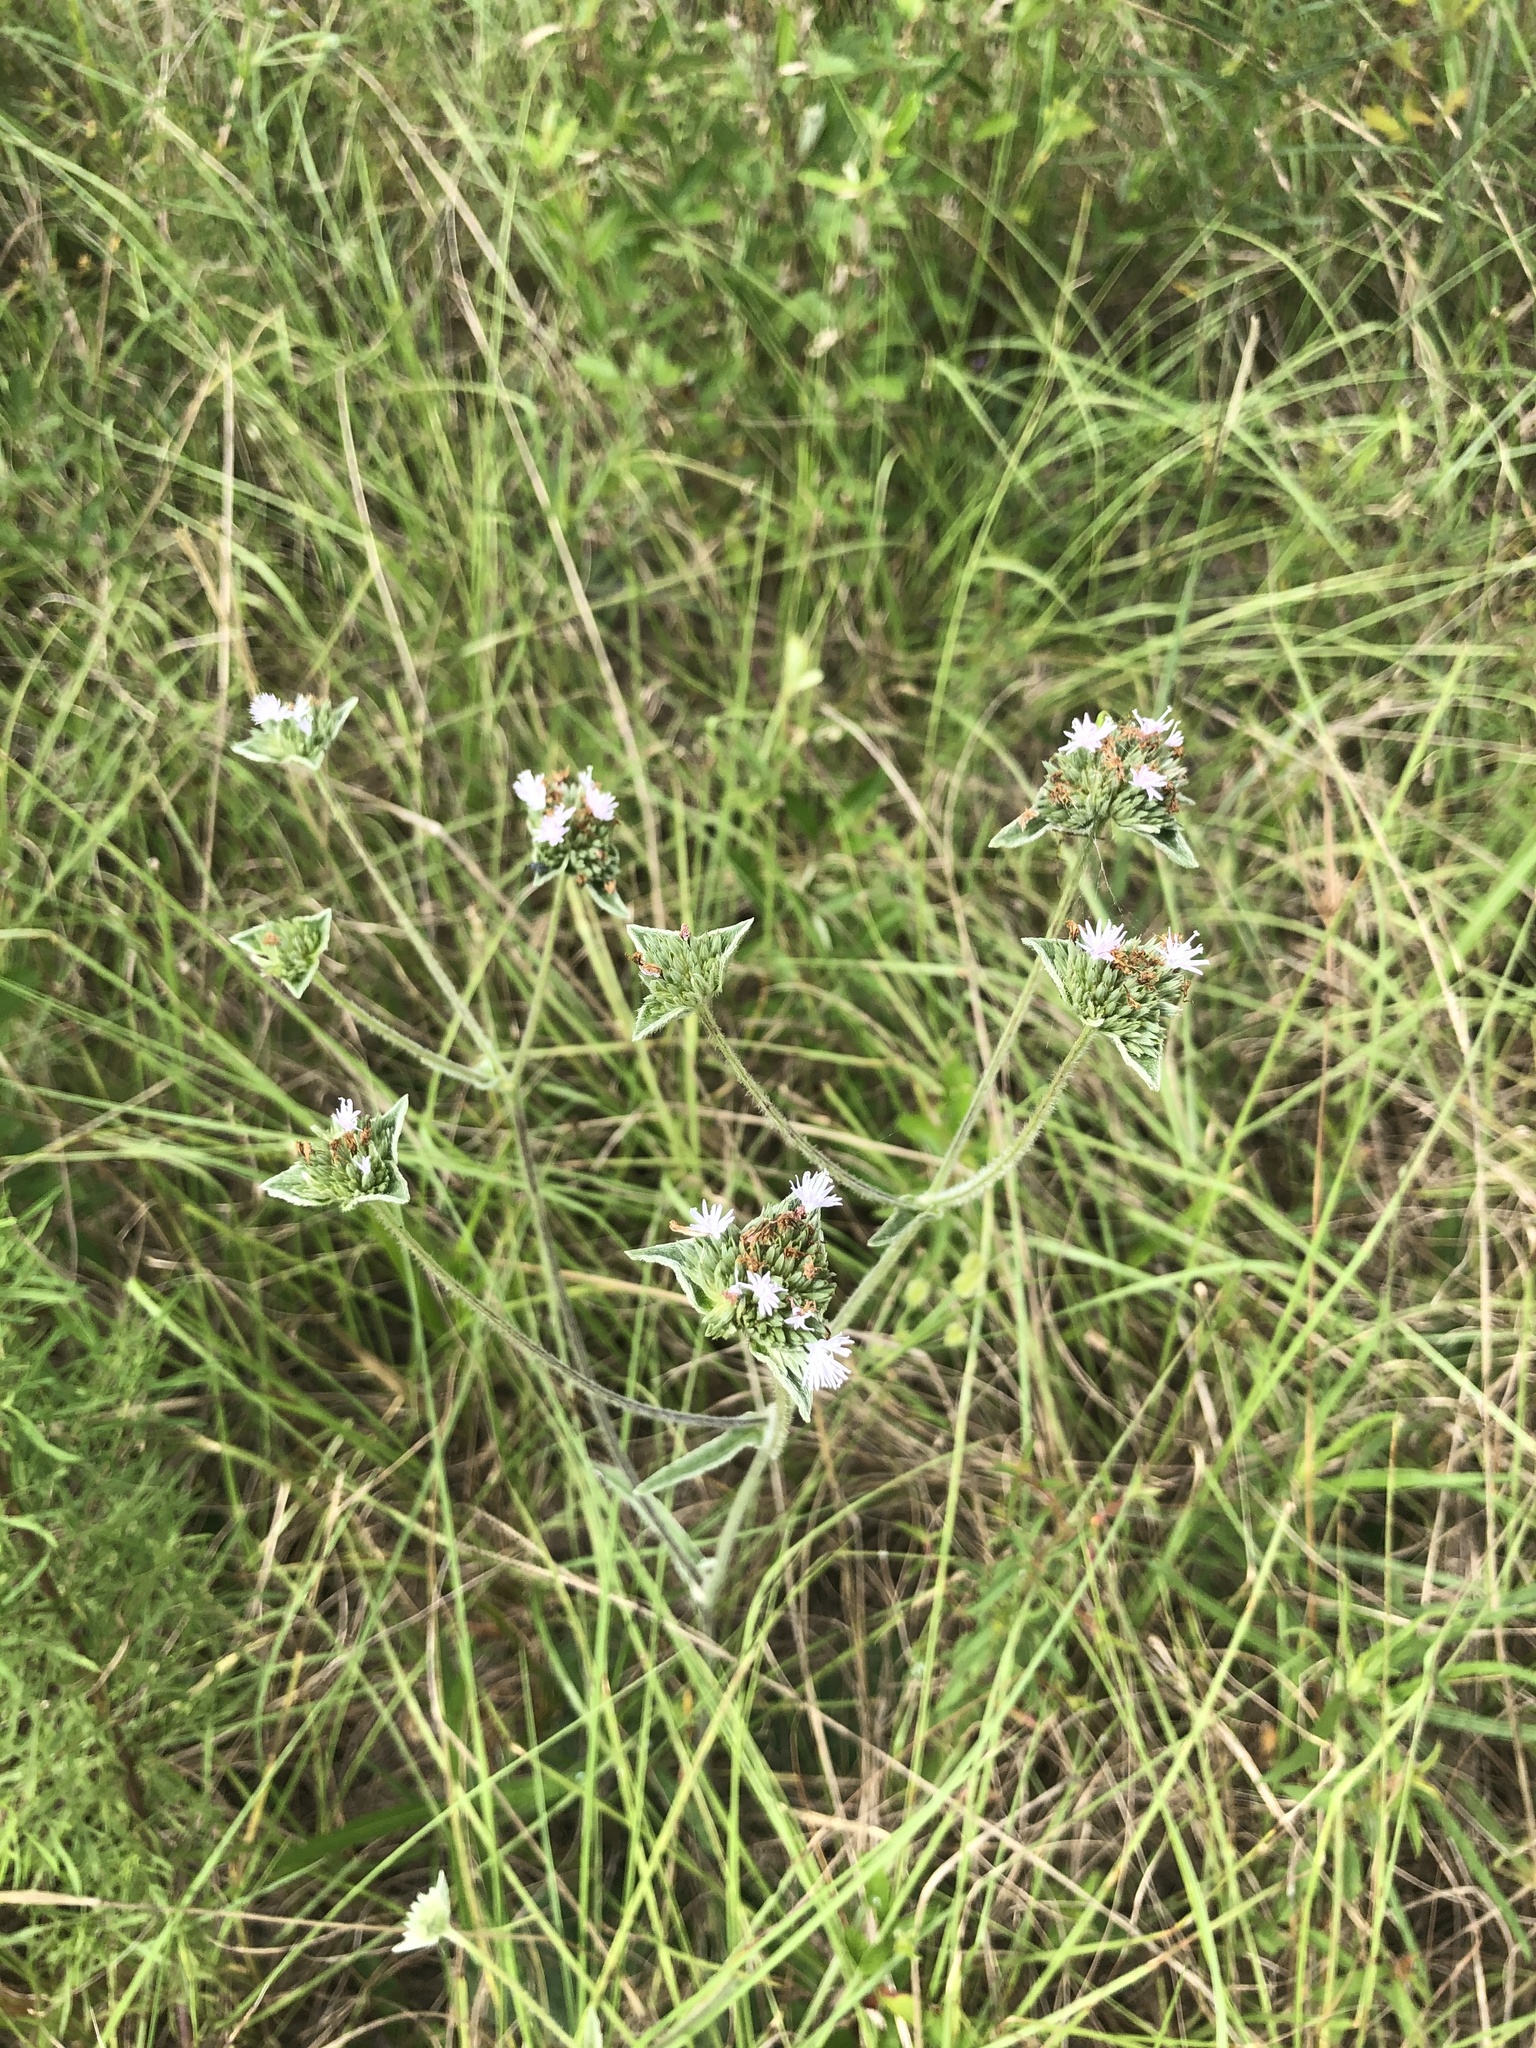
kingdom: Plantae
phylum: Tracheophyta
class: Magnoliopsida
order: Asterales
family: Asteraceae
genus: Elephantopus
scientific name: Elephantopus elatus
